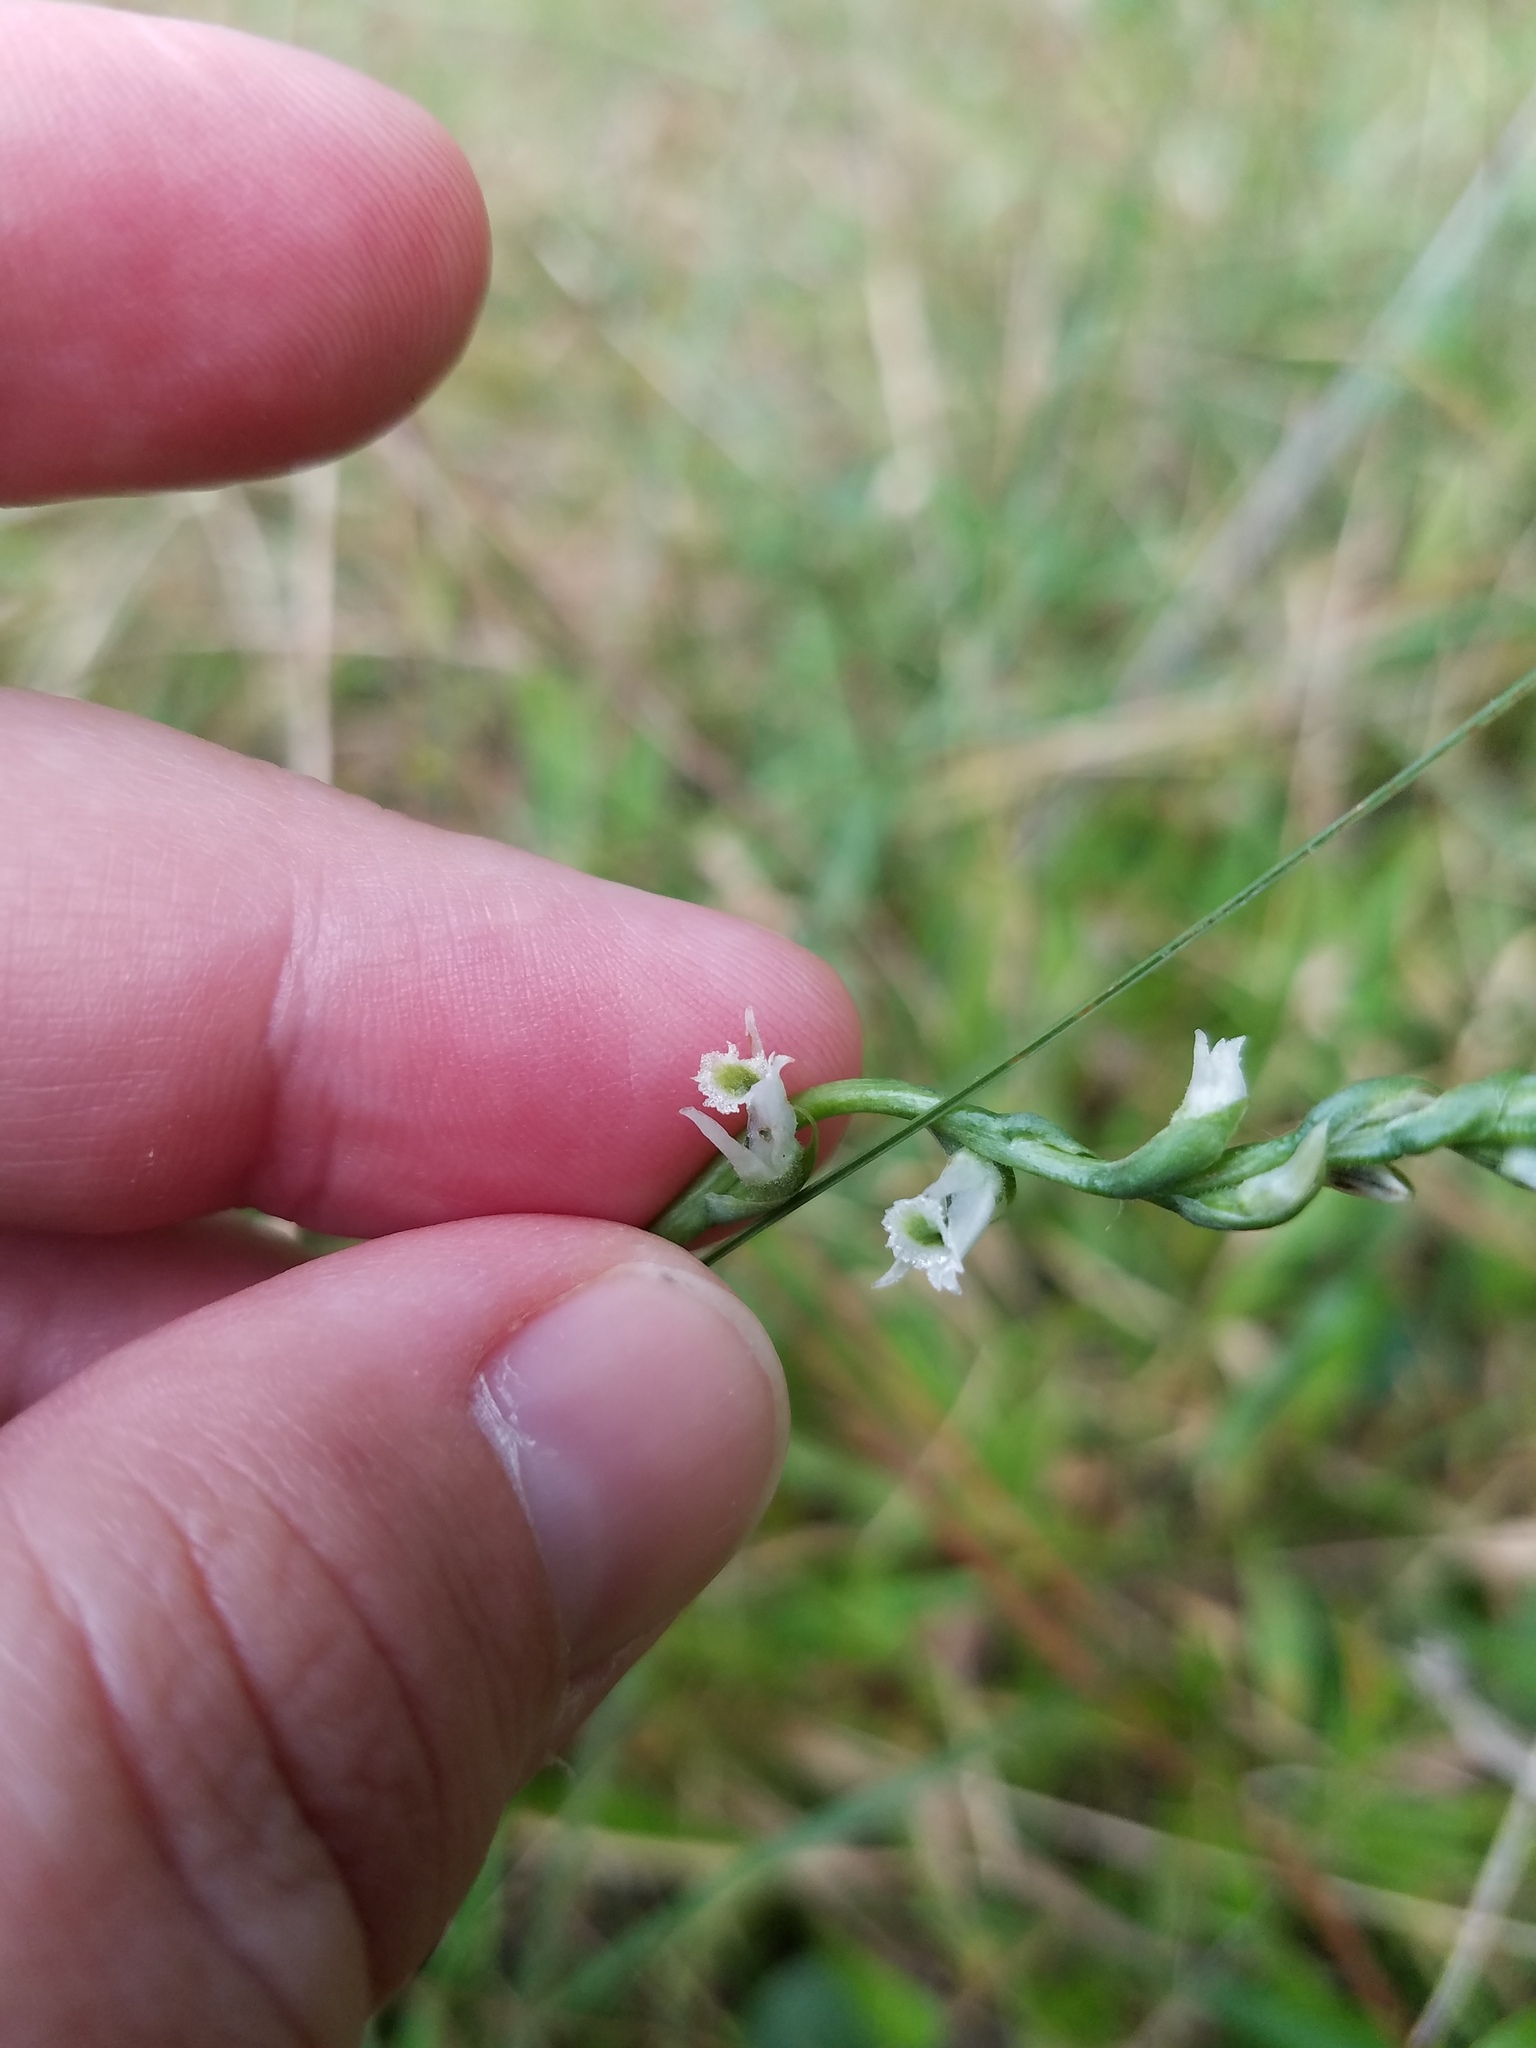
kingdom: Plantae
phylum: Tracheophyta
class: Liliopsida
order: Asparagales
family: Orchidaceae
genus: Spiranthes
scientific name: Spiranthes lacera
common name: Northern slender ladies'-tresses
